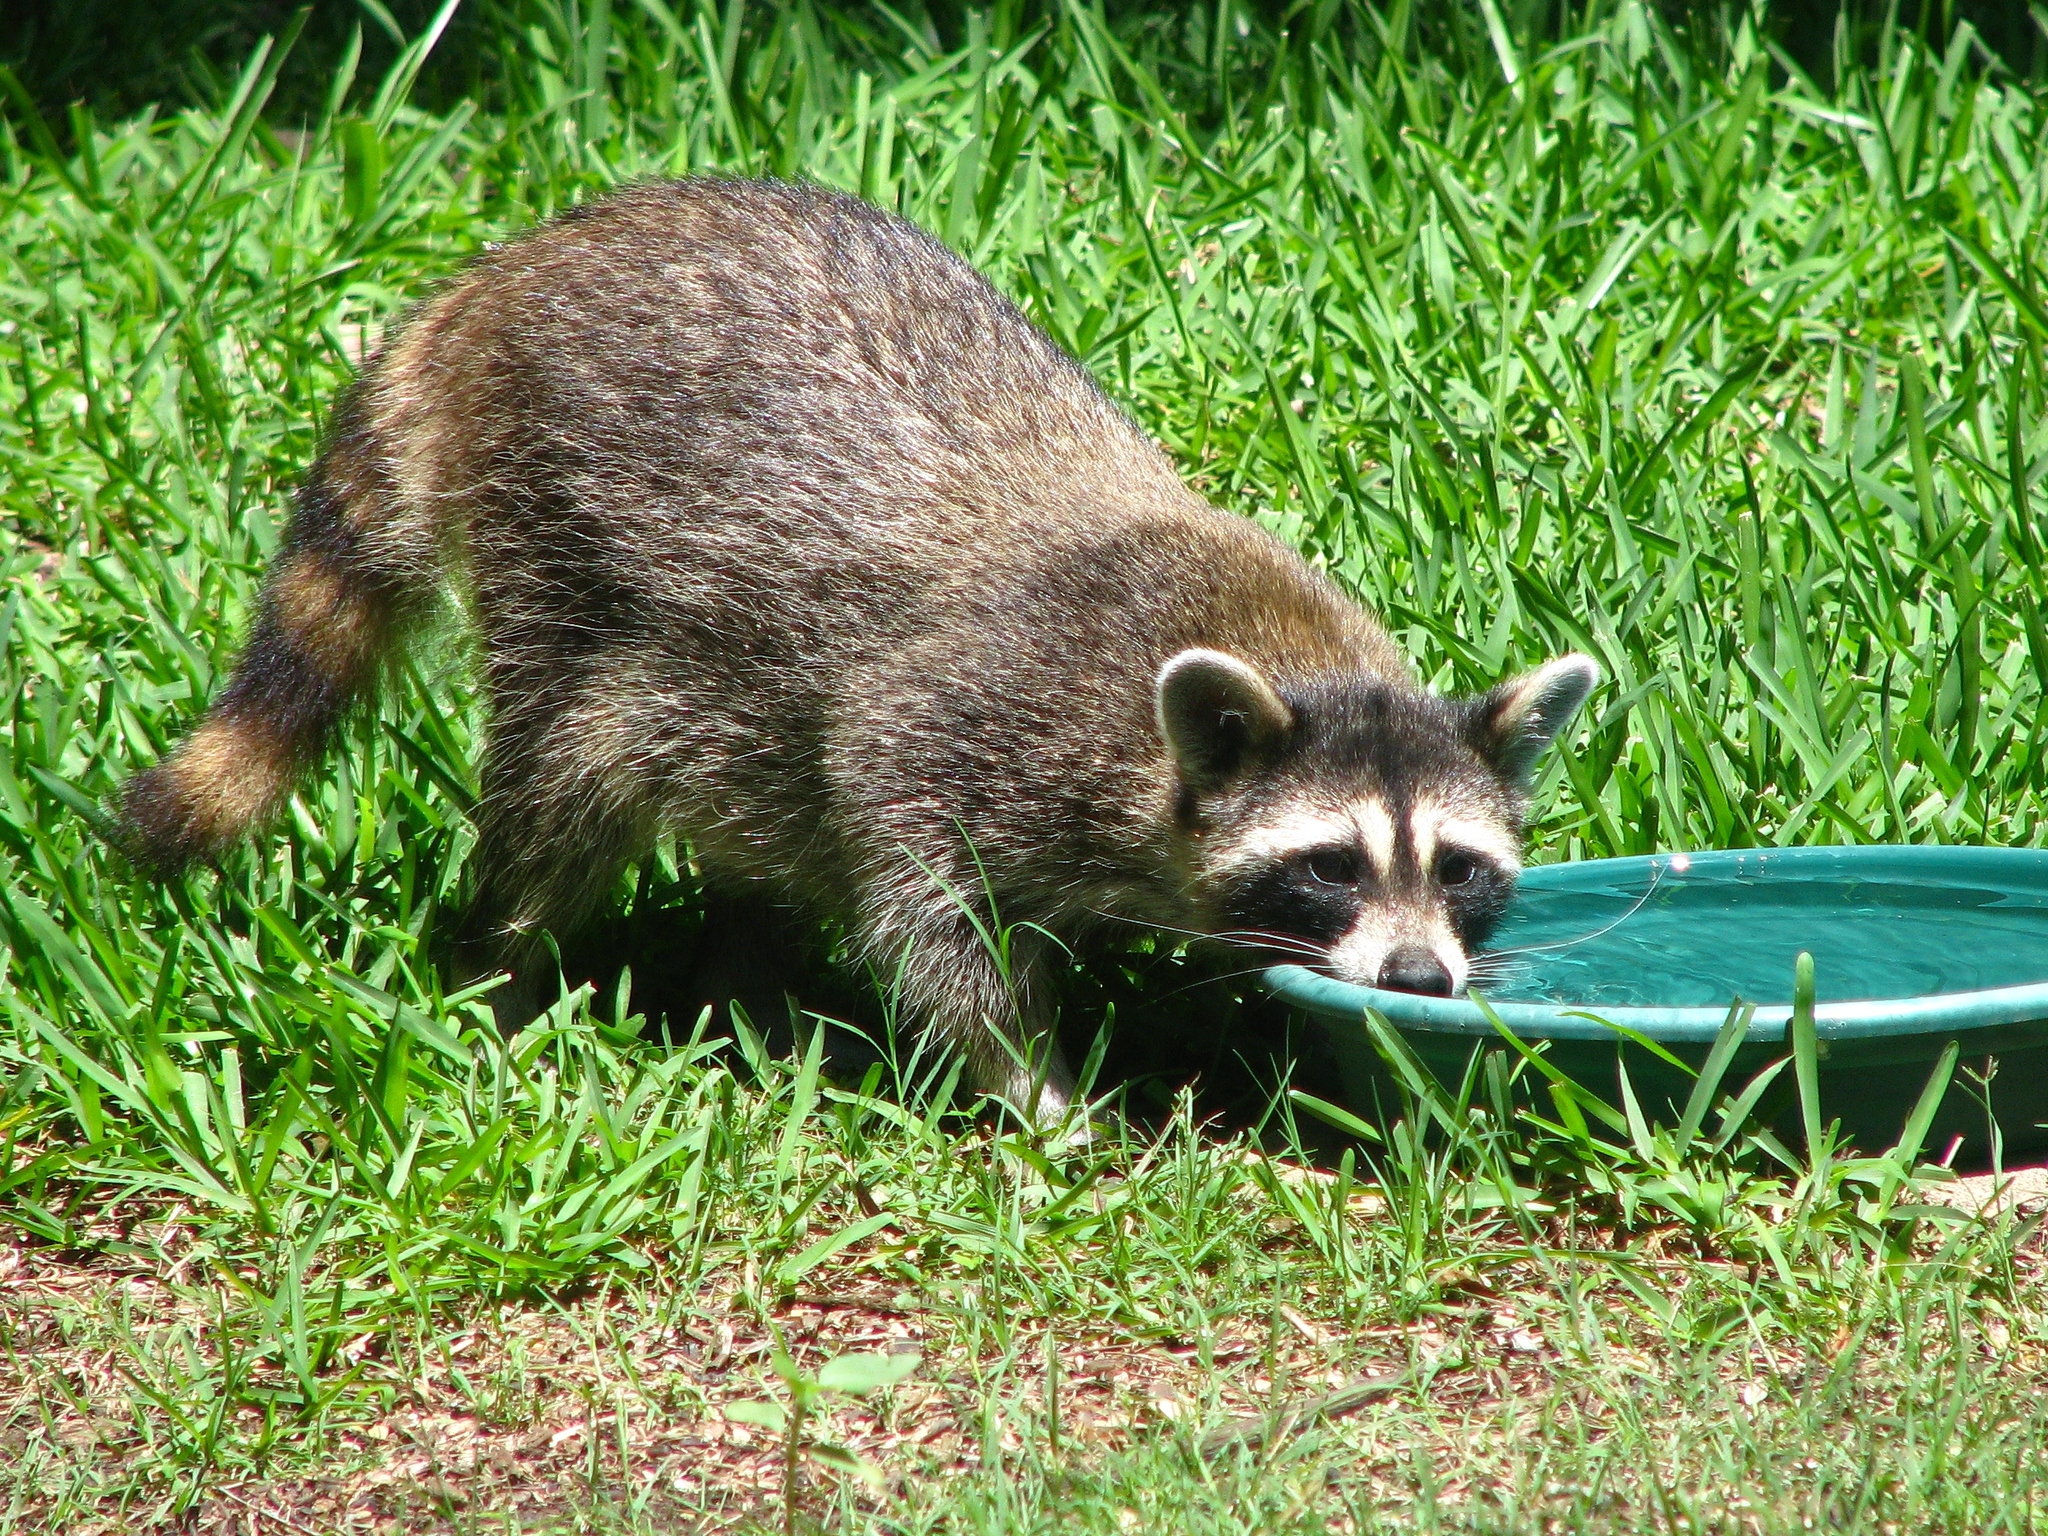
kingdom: Animalia
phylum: Chordata
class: Mammalia
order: Carnivora
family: Procyonidae
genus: Procyon
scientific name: Procyon lotor
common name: Raccoon
